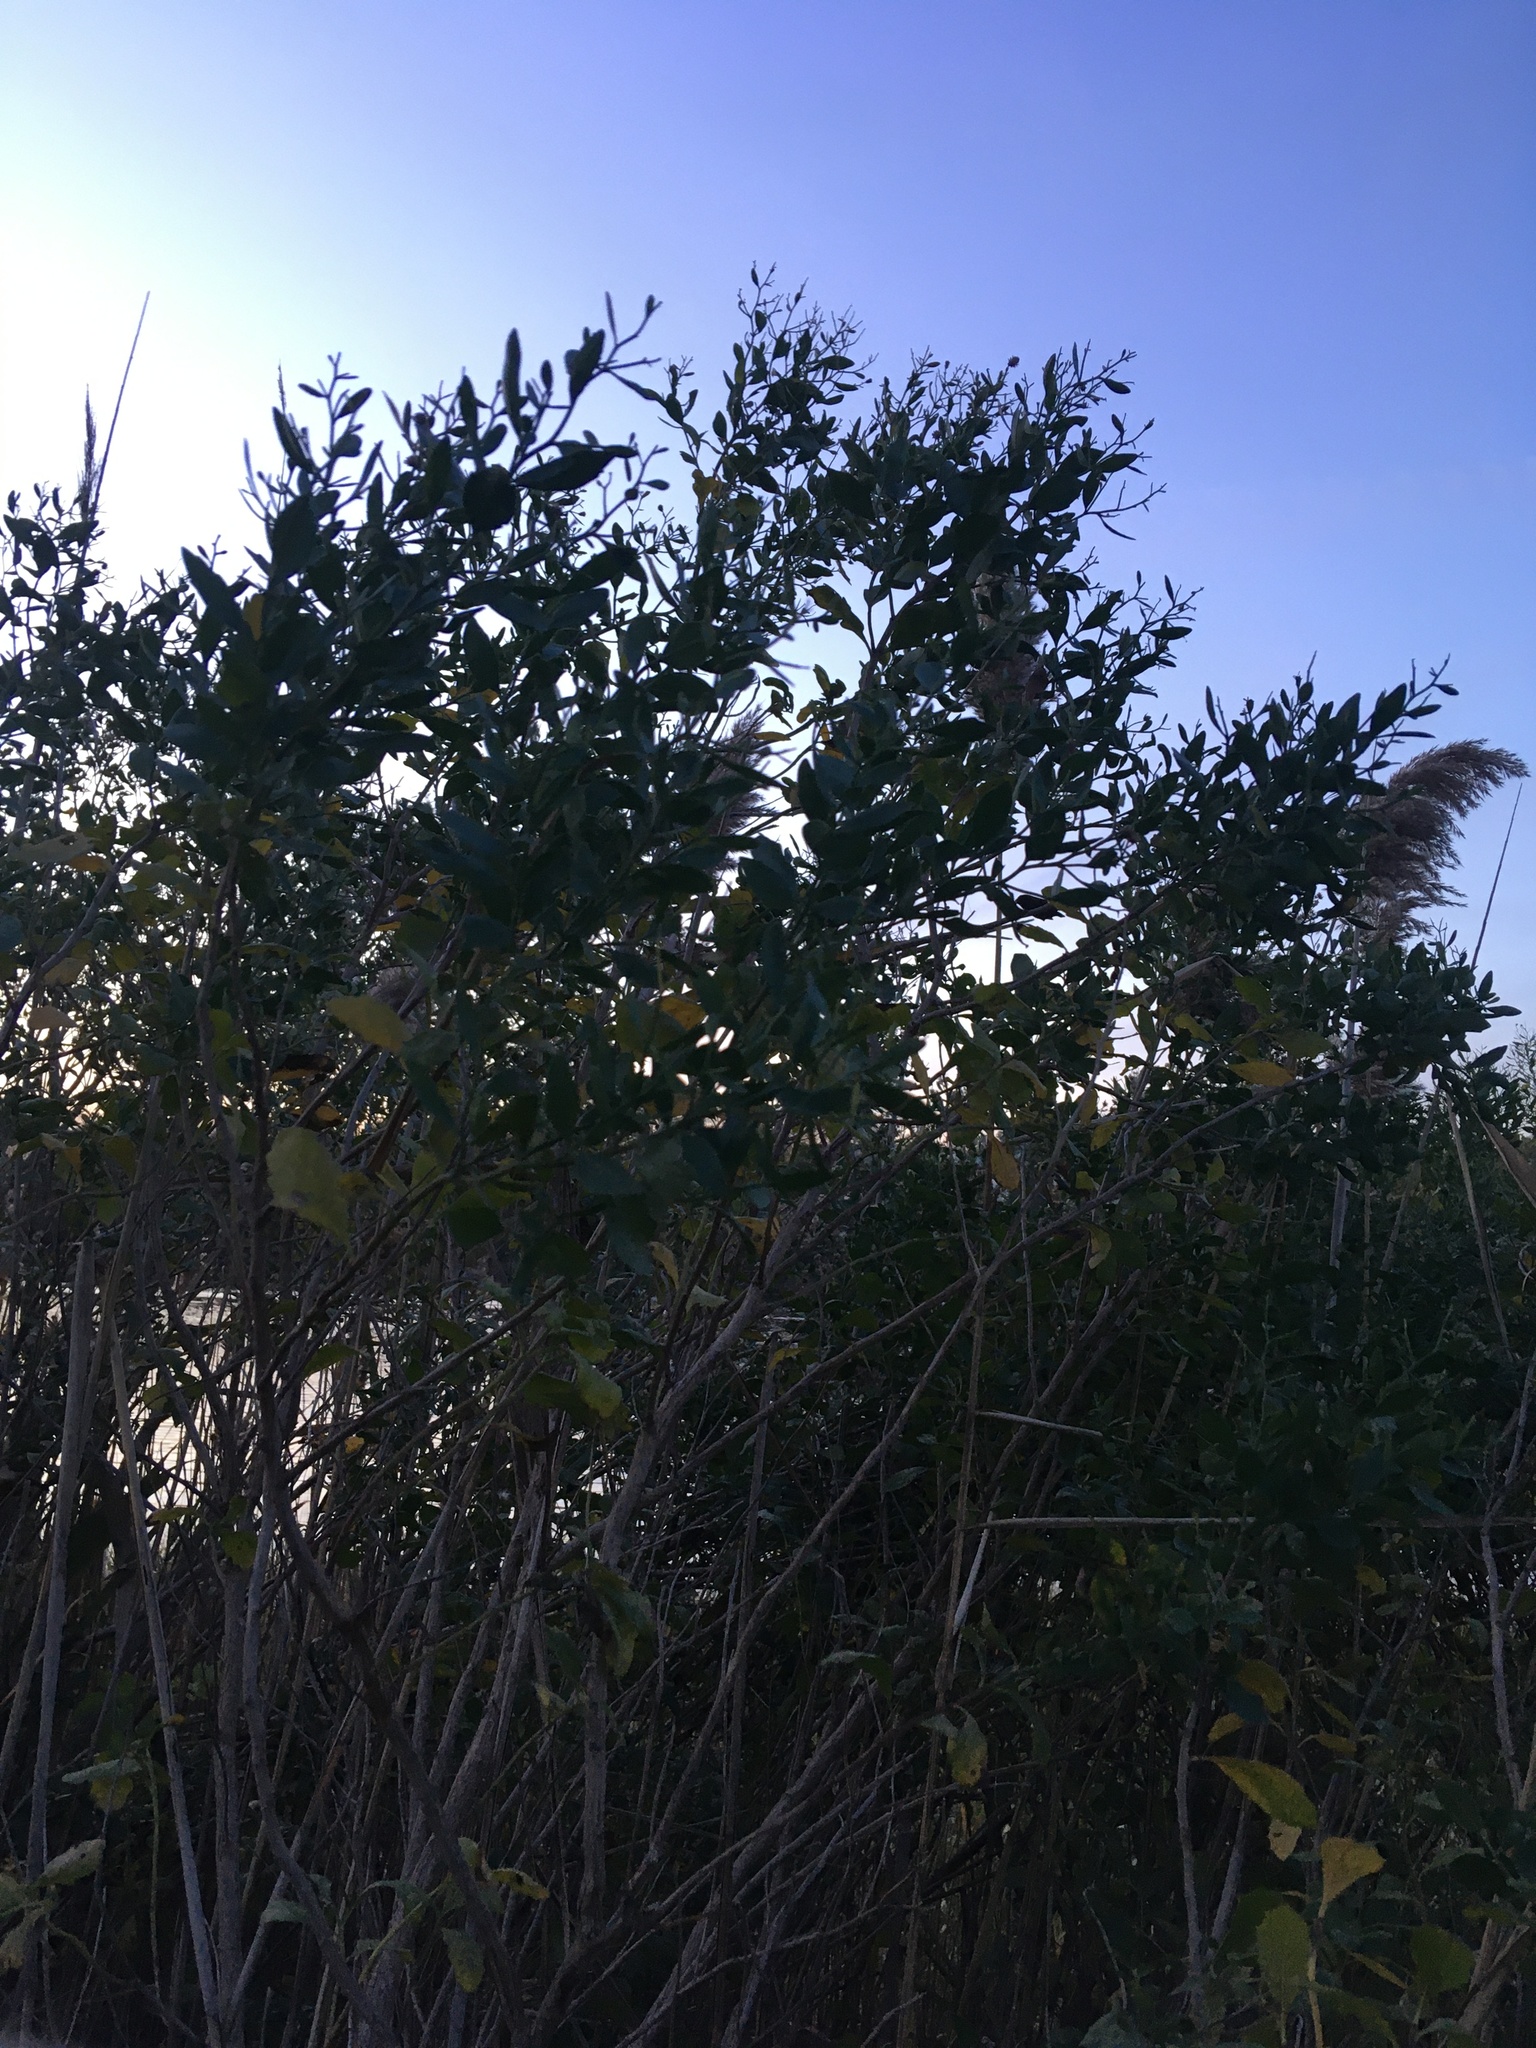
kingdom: Plantae
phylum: Tracheophyta
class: Magnoliopsida
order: Asterales
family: Asteraceae
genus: Baccharis
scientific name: Baccharis halimifolia
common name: Eastern baccharis
